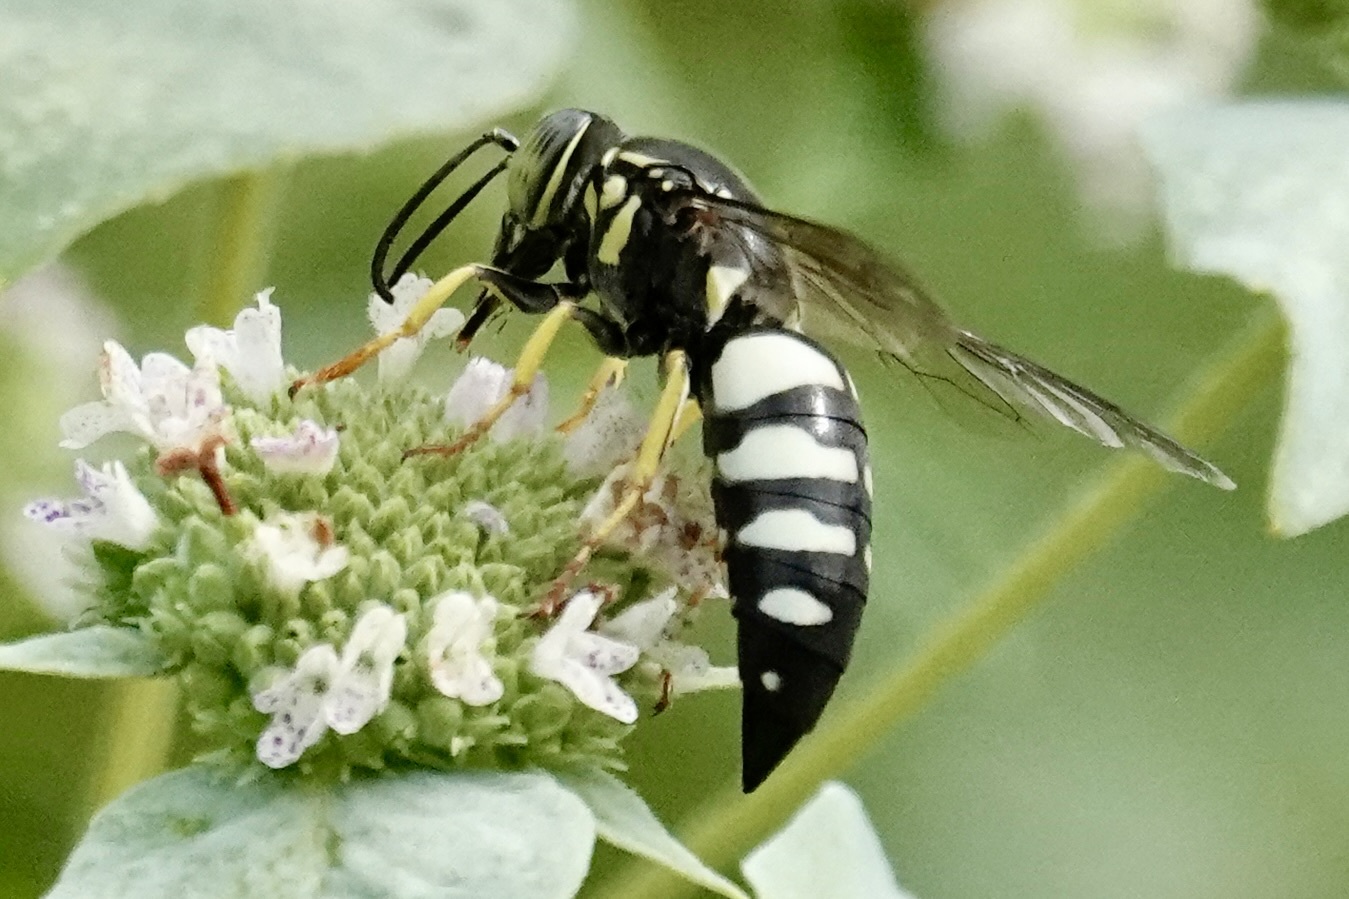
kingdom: Animalia
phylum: Arthropoda
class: Insecta
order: Hymenoptera
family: Crabronidae
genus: Bicyrtes
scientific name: Bicyrtes quadrifasciatus
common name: Four-banded stink bug hunter wasp
